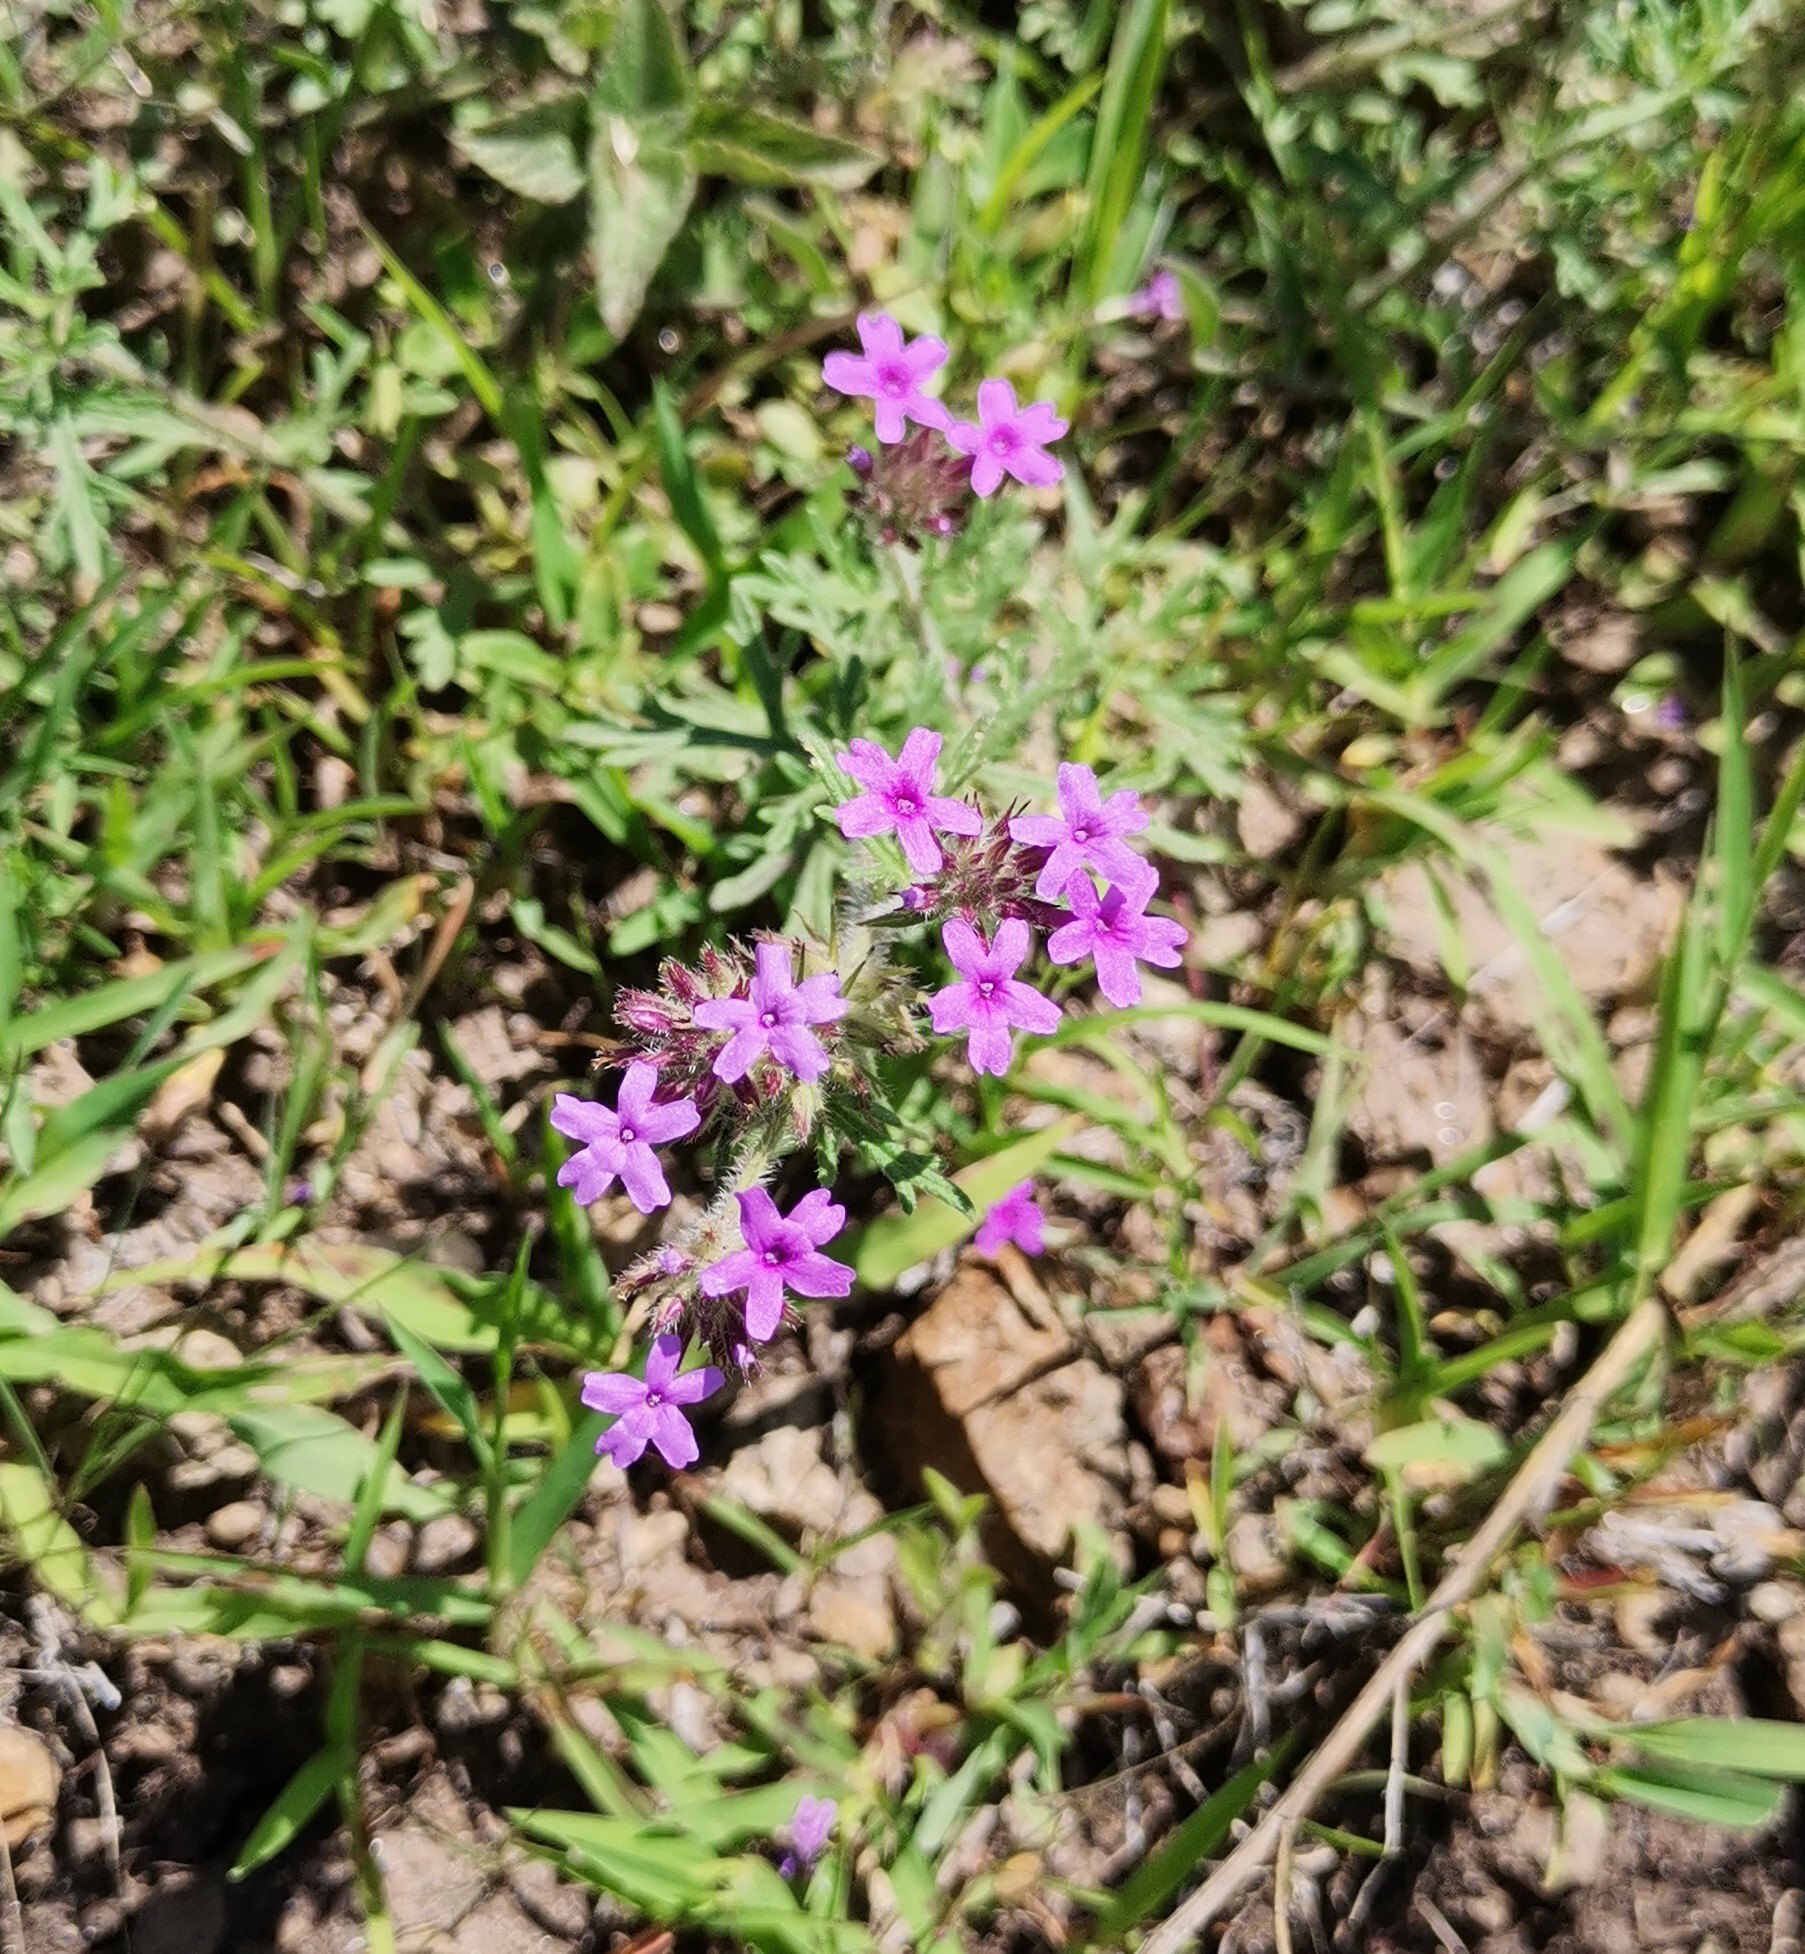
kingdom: Plantae
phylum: Tracheophyta
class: Magnoliopsida
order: Lamiales
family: Verbenaceae
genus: Verbena
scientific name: Verbena bipinnatifida
